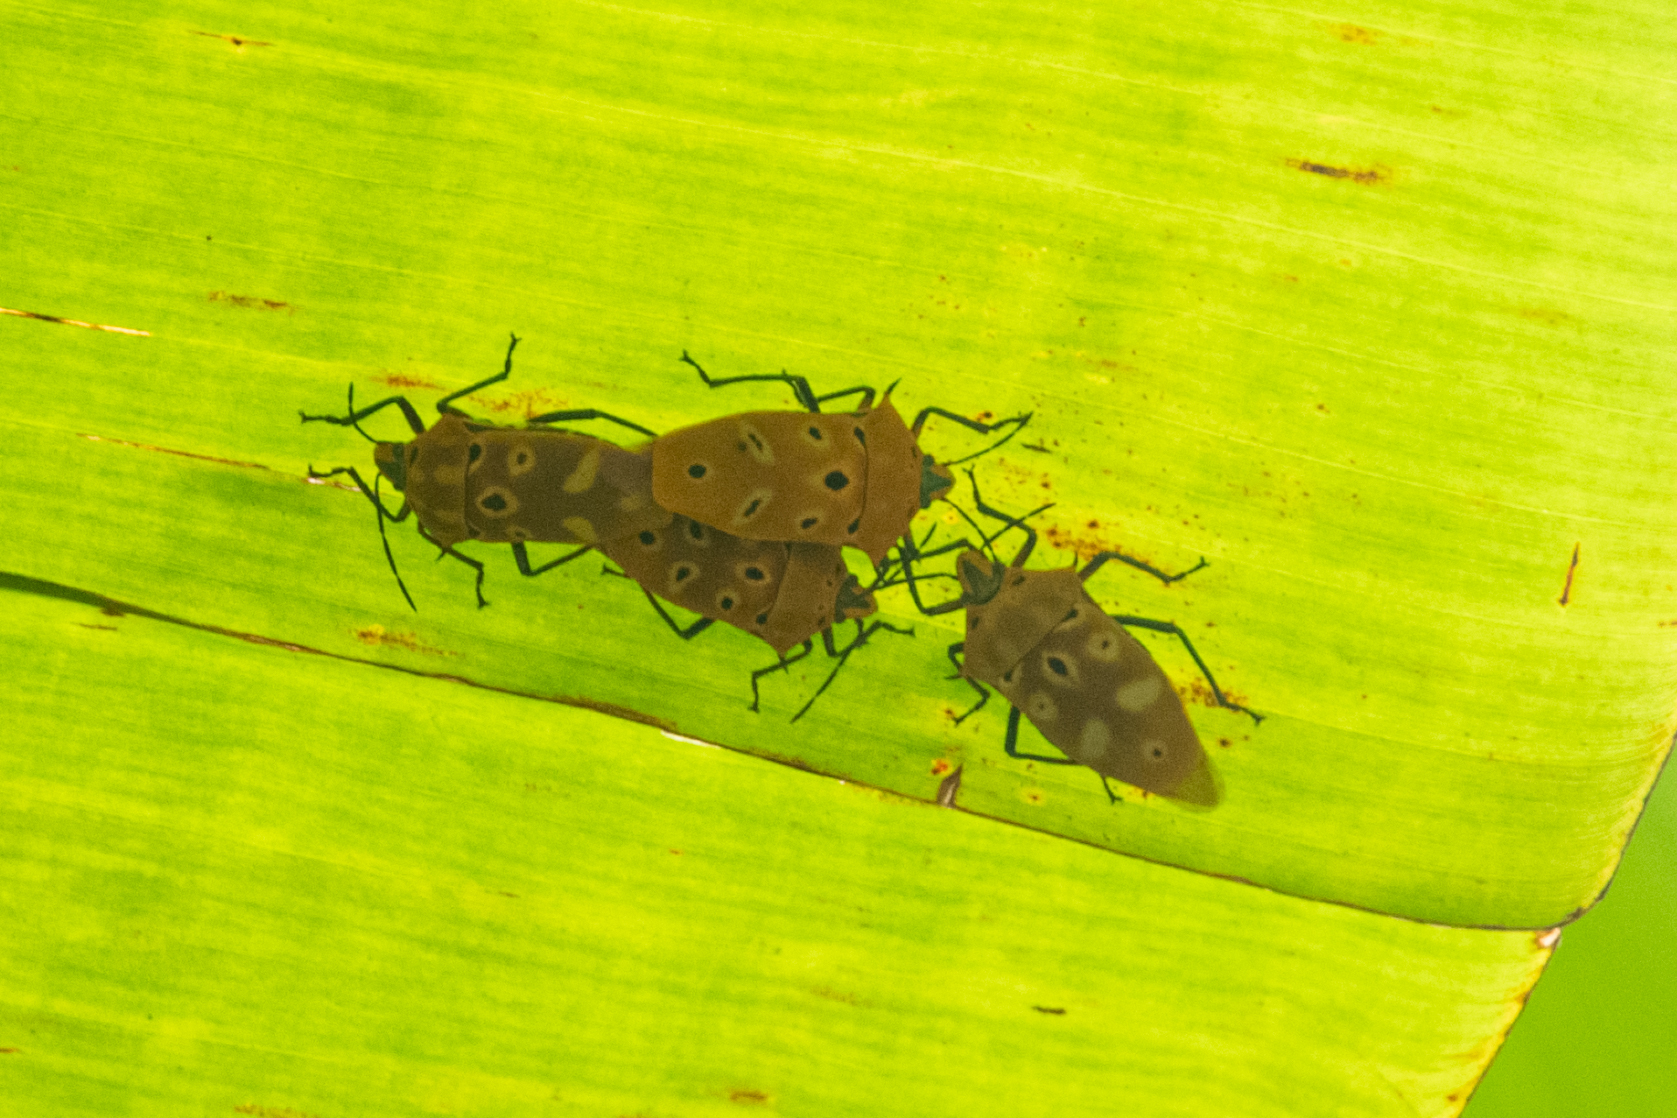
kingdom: Animalia
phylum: Arthropoda
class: Insecta
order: Hemiptera
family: Scutelleridae
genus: Cantao
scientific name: Cantao ocellatus
